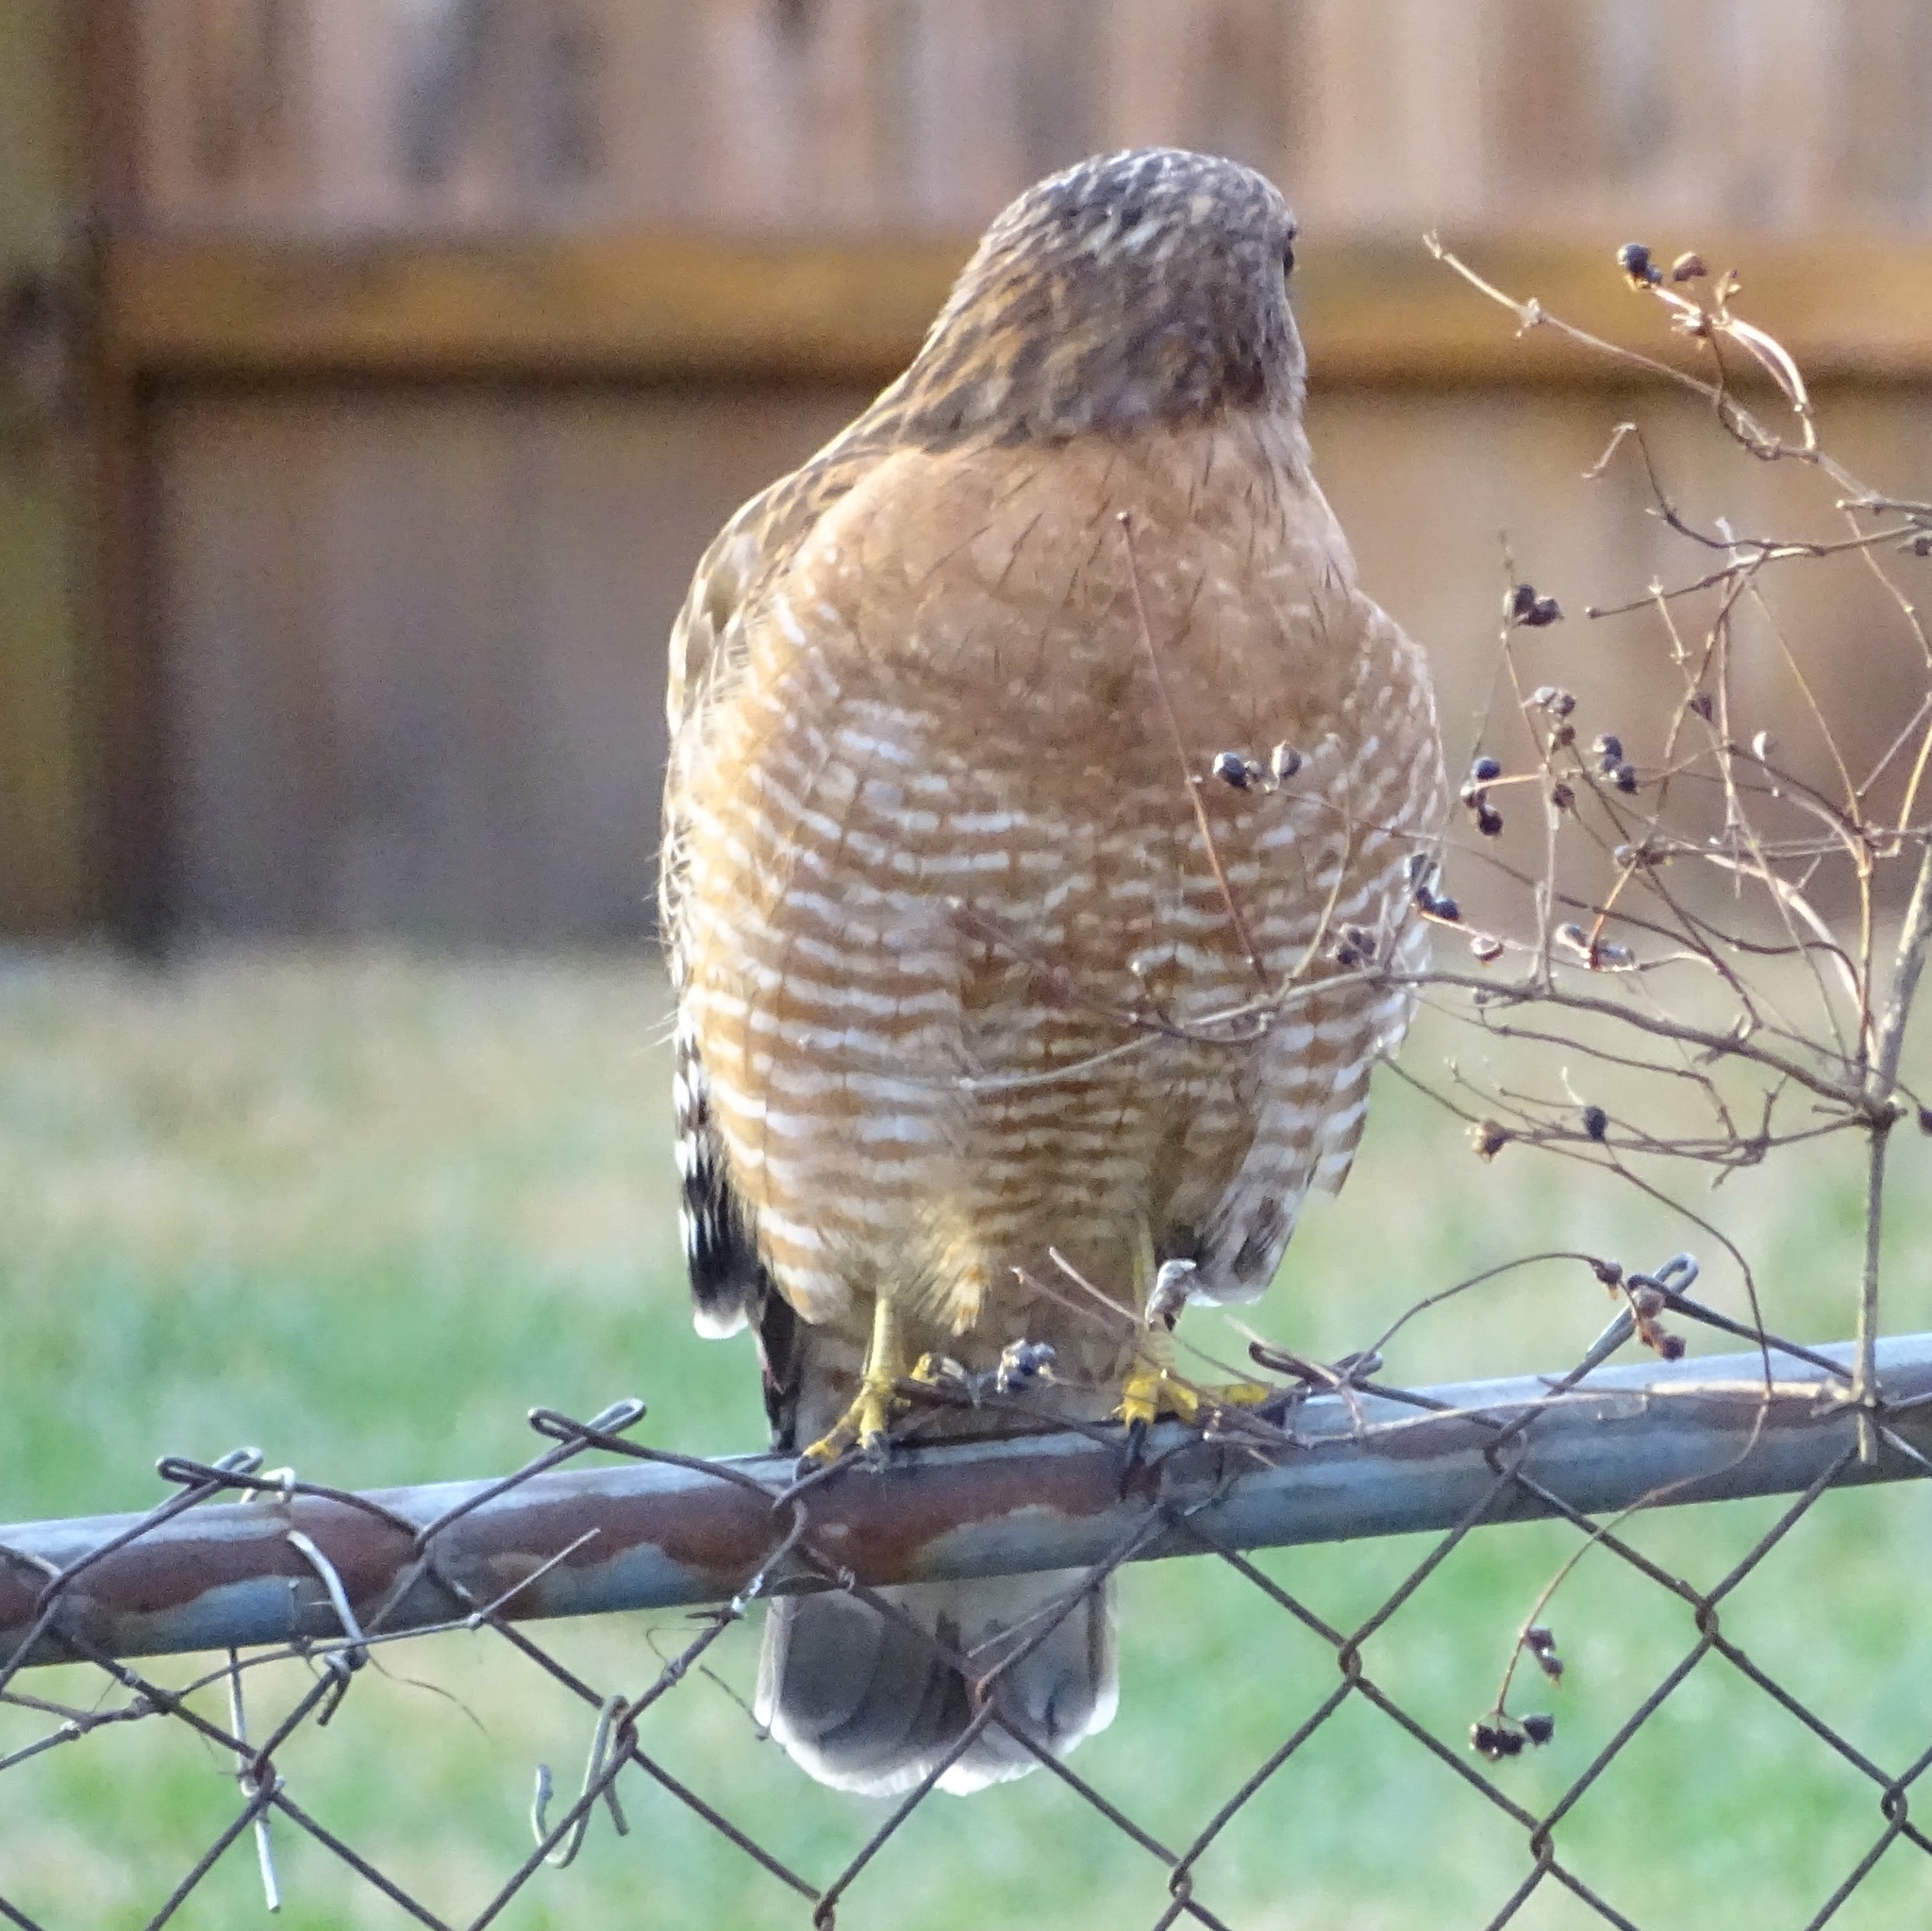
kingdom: Animalia
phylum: Chordata
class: Aves
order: Accipitriformes
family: Accipitridae
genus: Buteo
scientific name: Buteo lineatus
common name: Red-shouldered hawk
